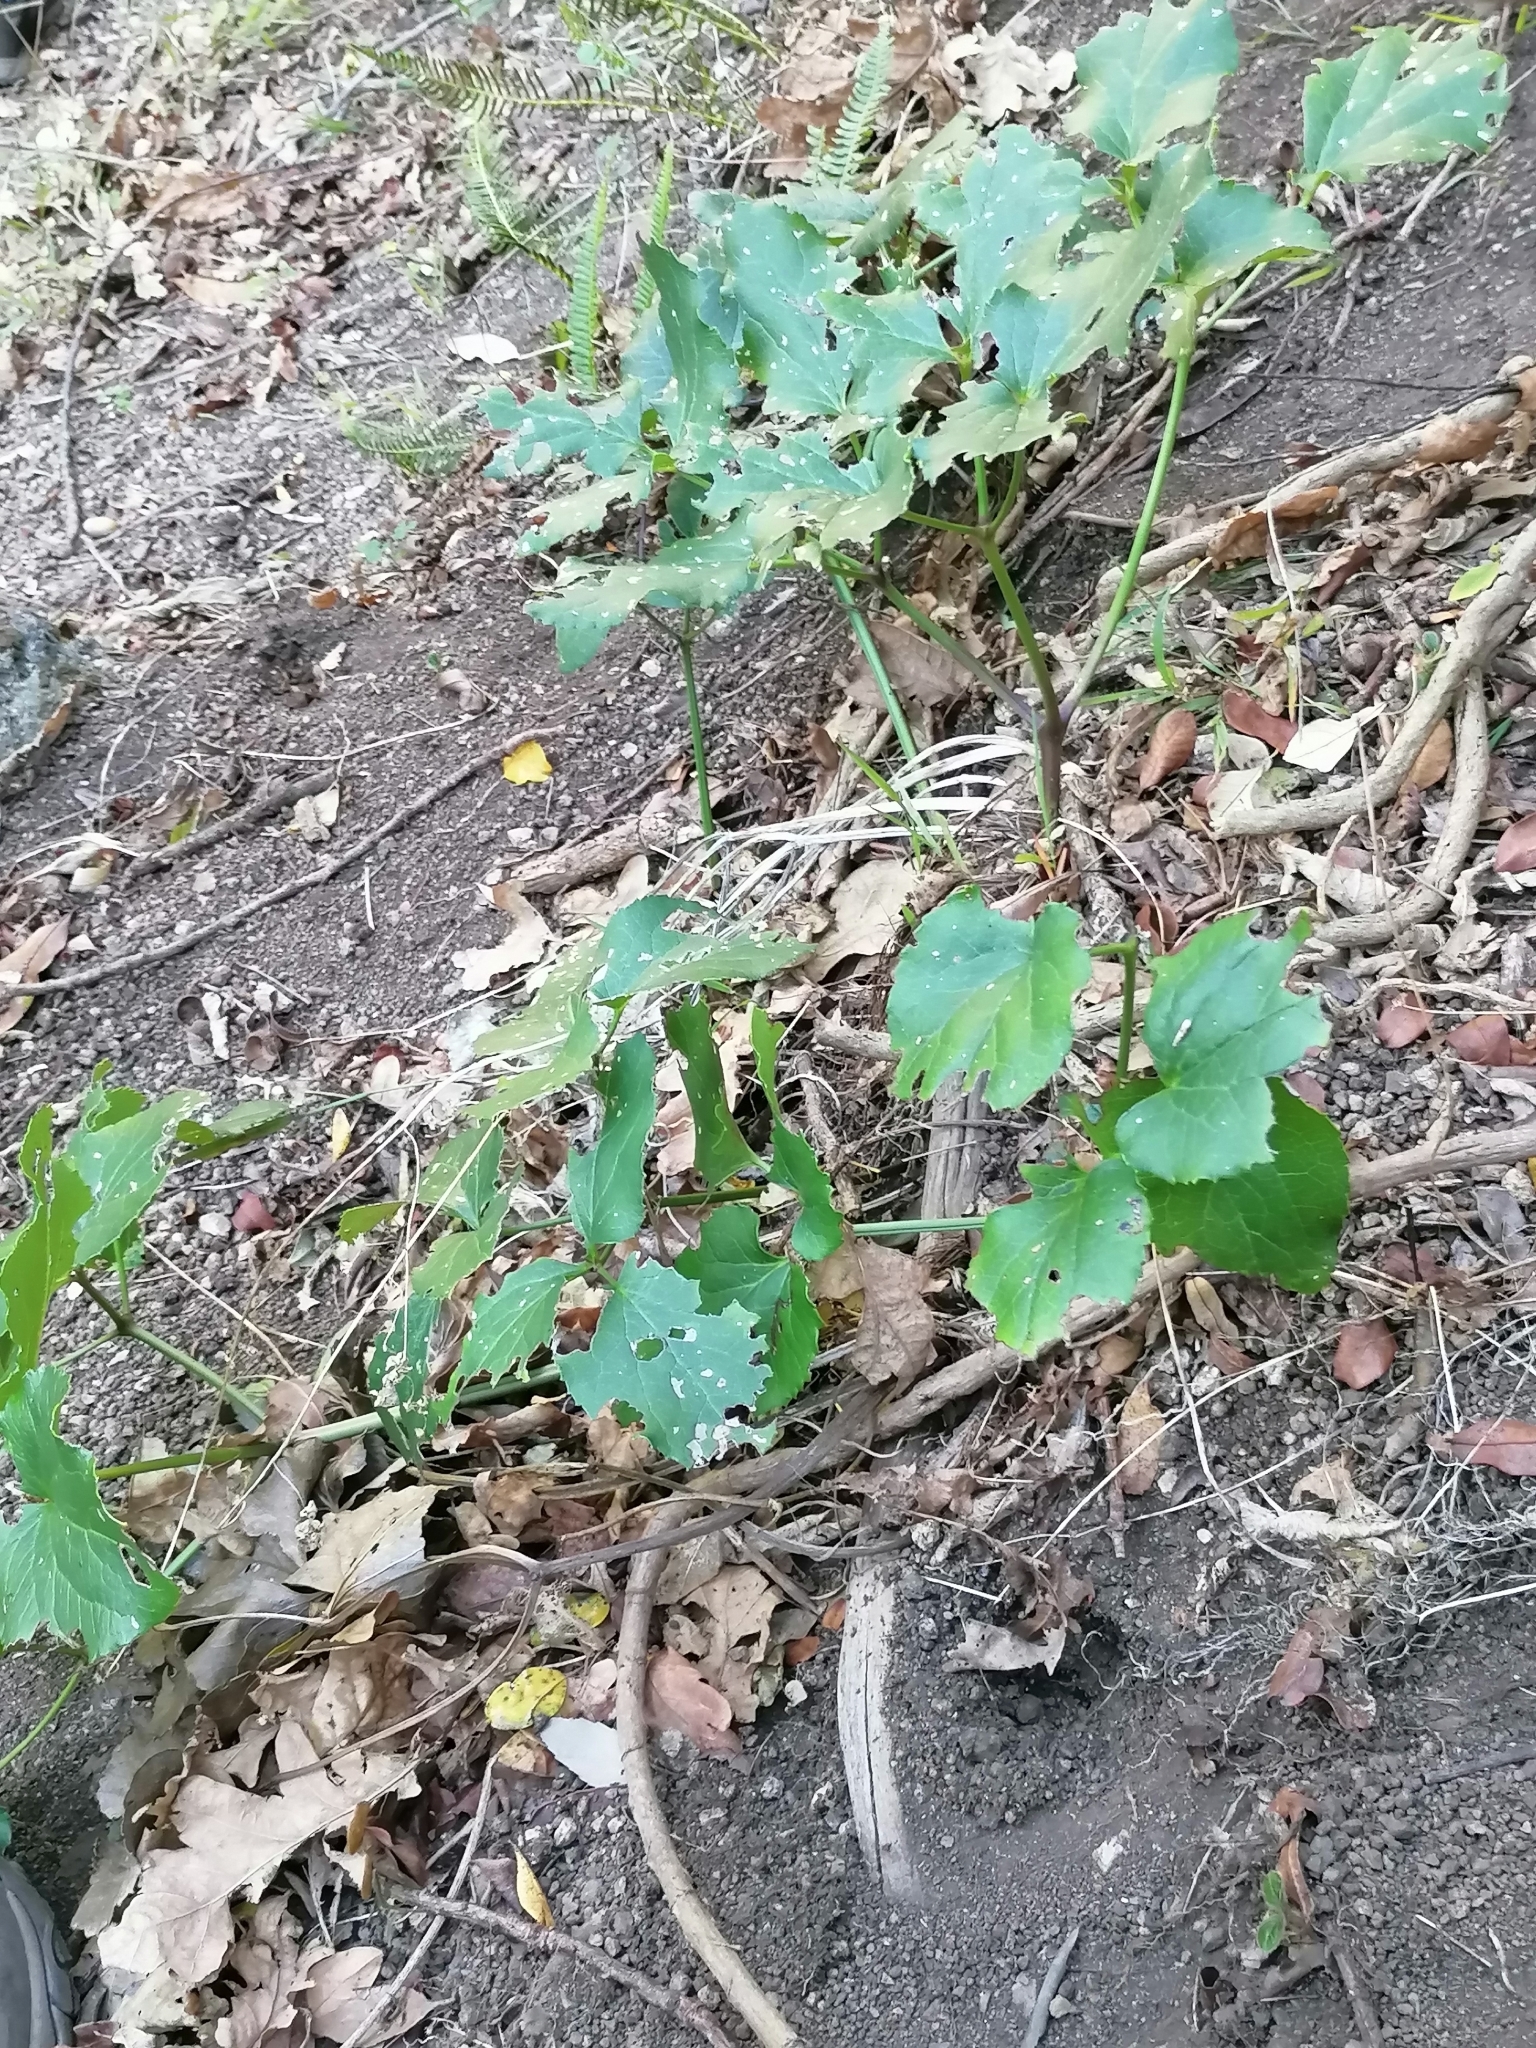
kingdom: Plantae
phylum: Tracheophyta
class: Magnoliopsida
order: Ranunculales
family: Ranunculaceae
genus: Knowltonia
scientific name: Knowltonia vesicatoria
